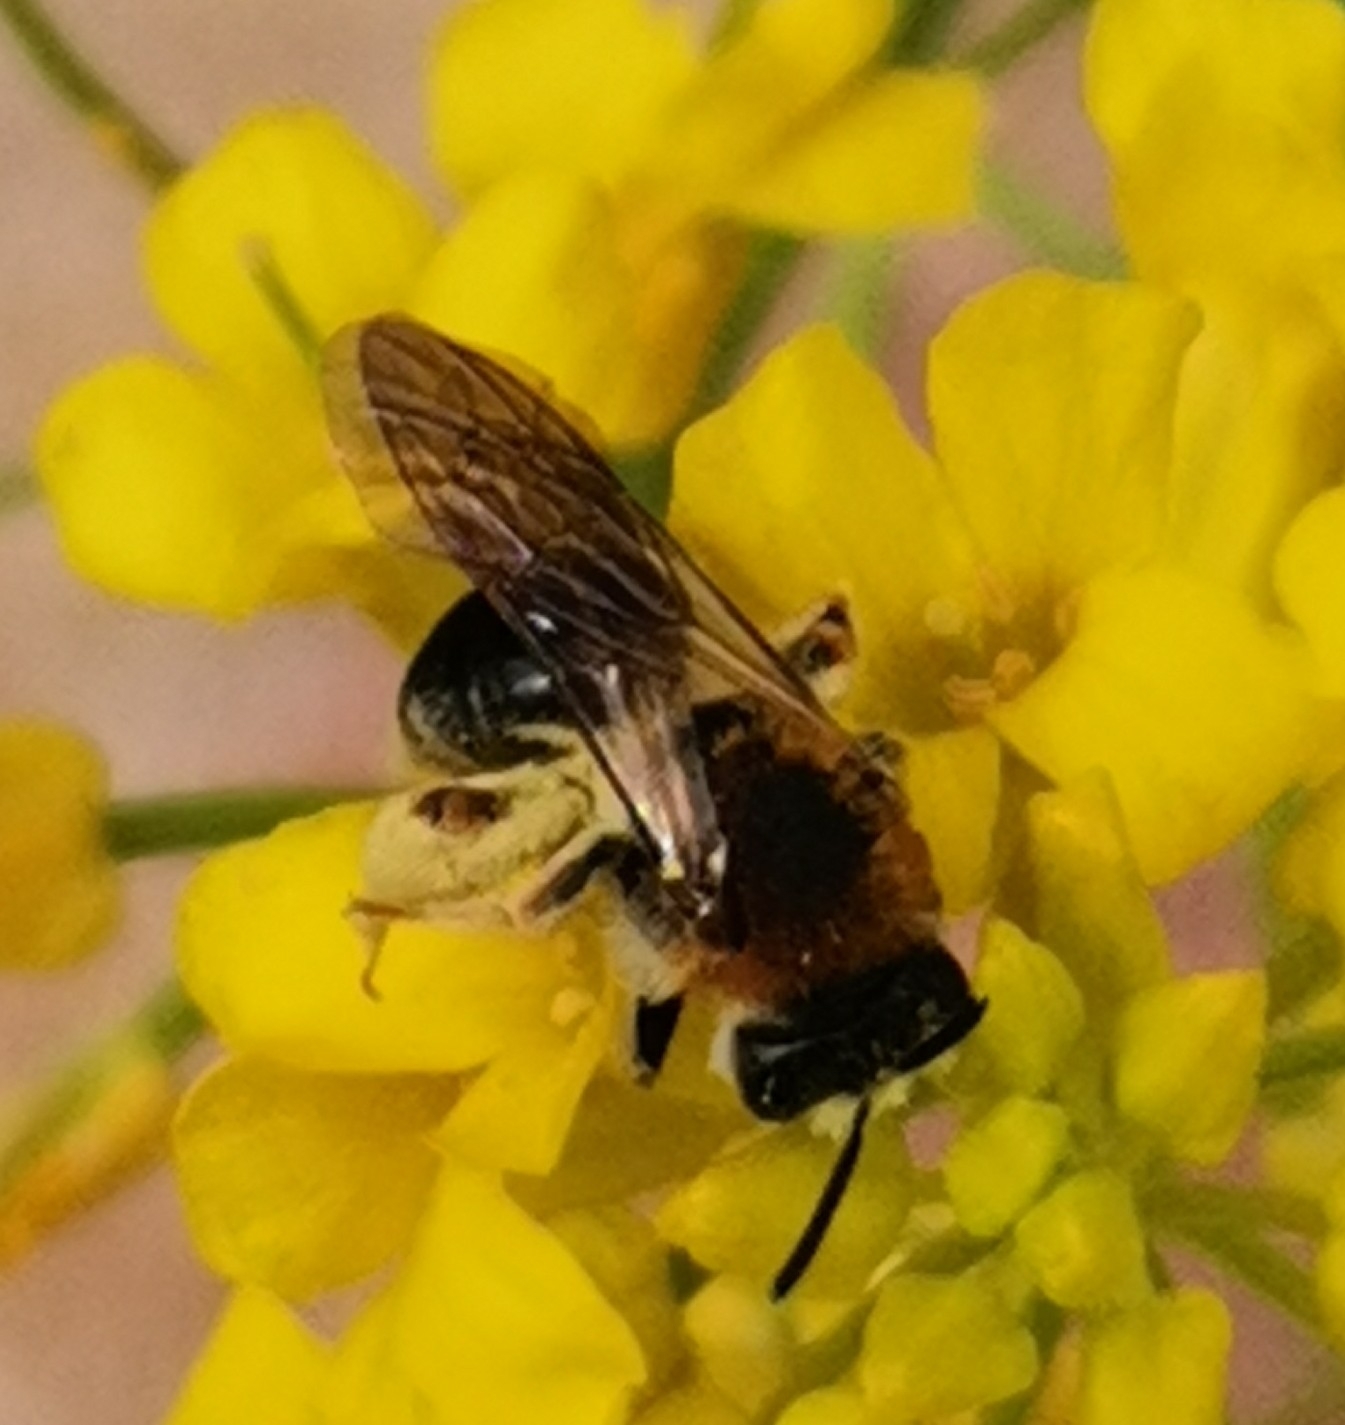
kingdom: Animalia
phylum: Arthropoda
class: Insecta
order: Hymenoptera
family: Andrenidae
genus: Andrena
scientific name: Andrena haemorrhoa
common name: Early mining bee
